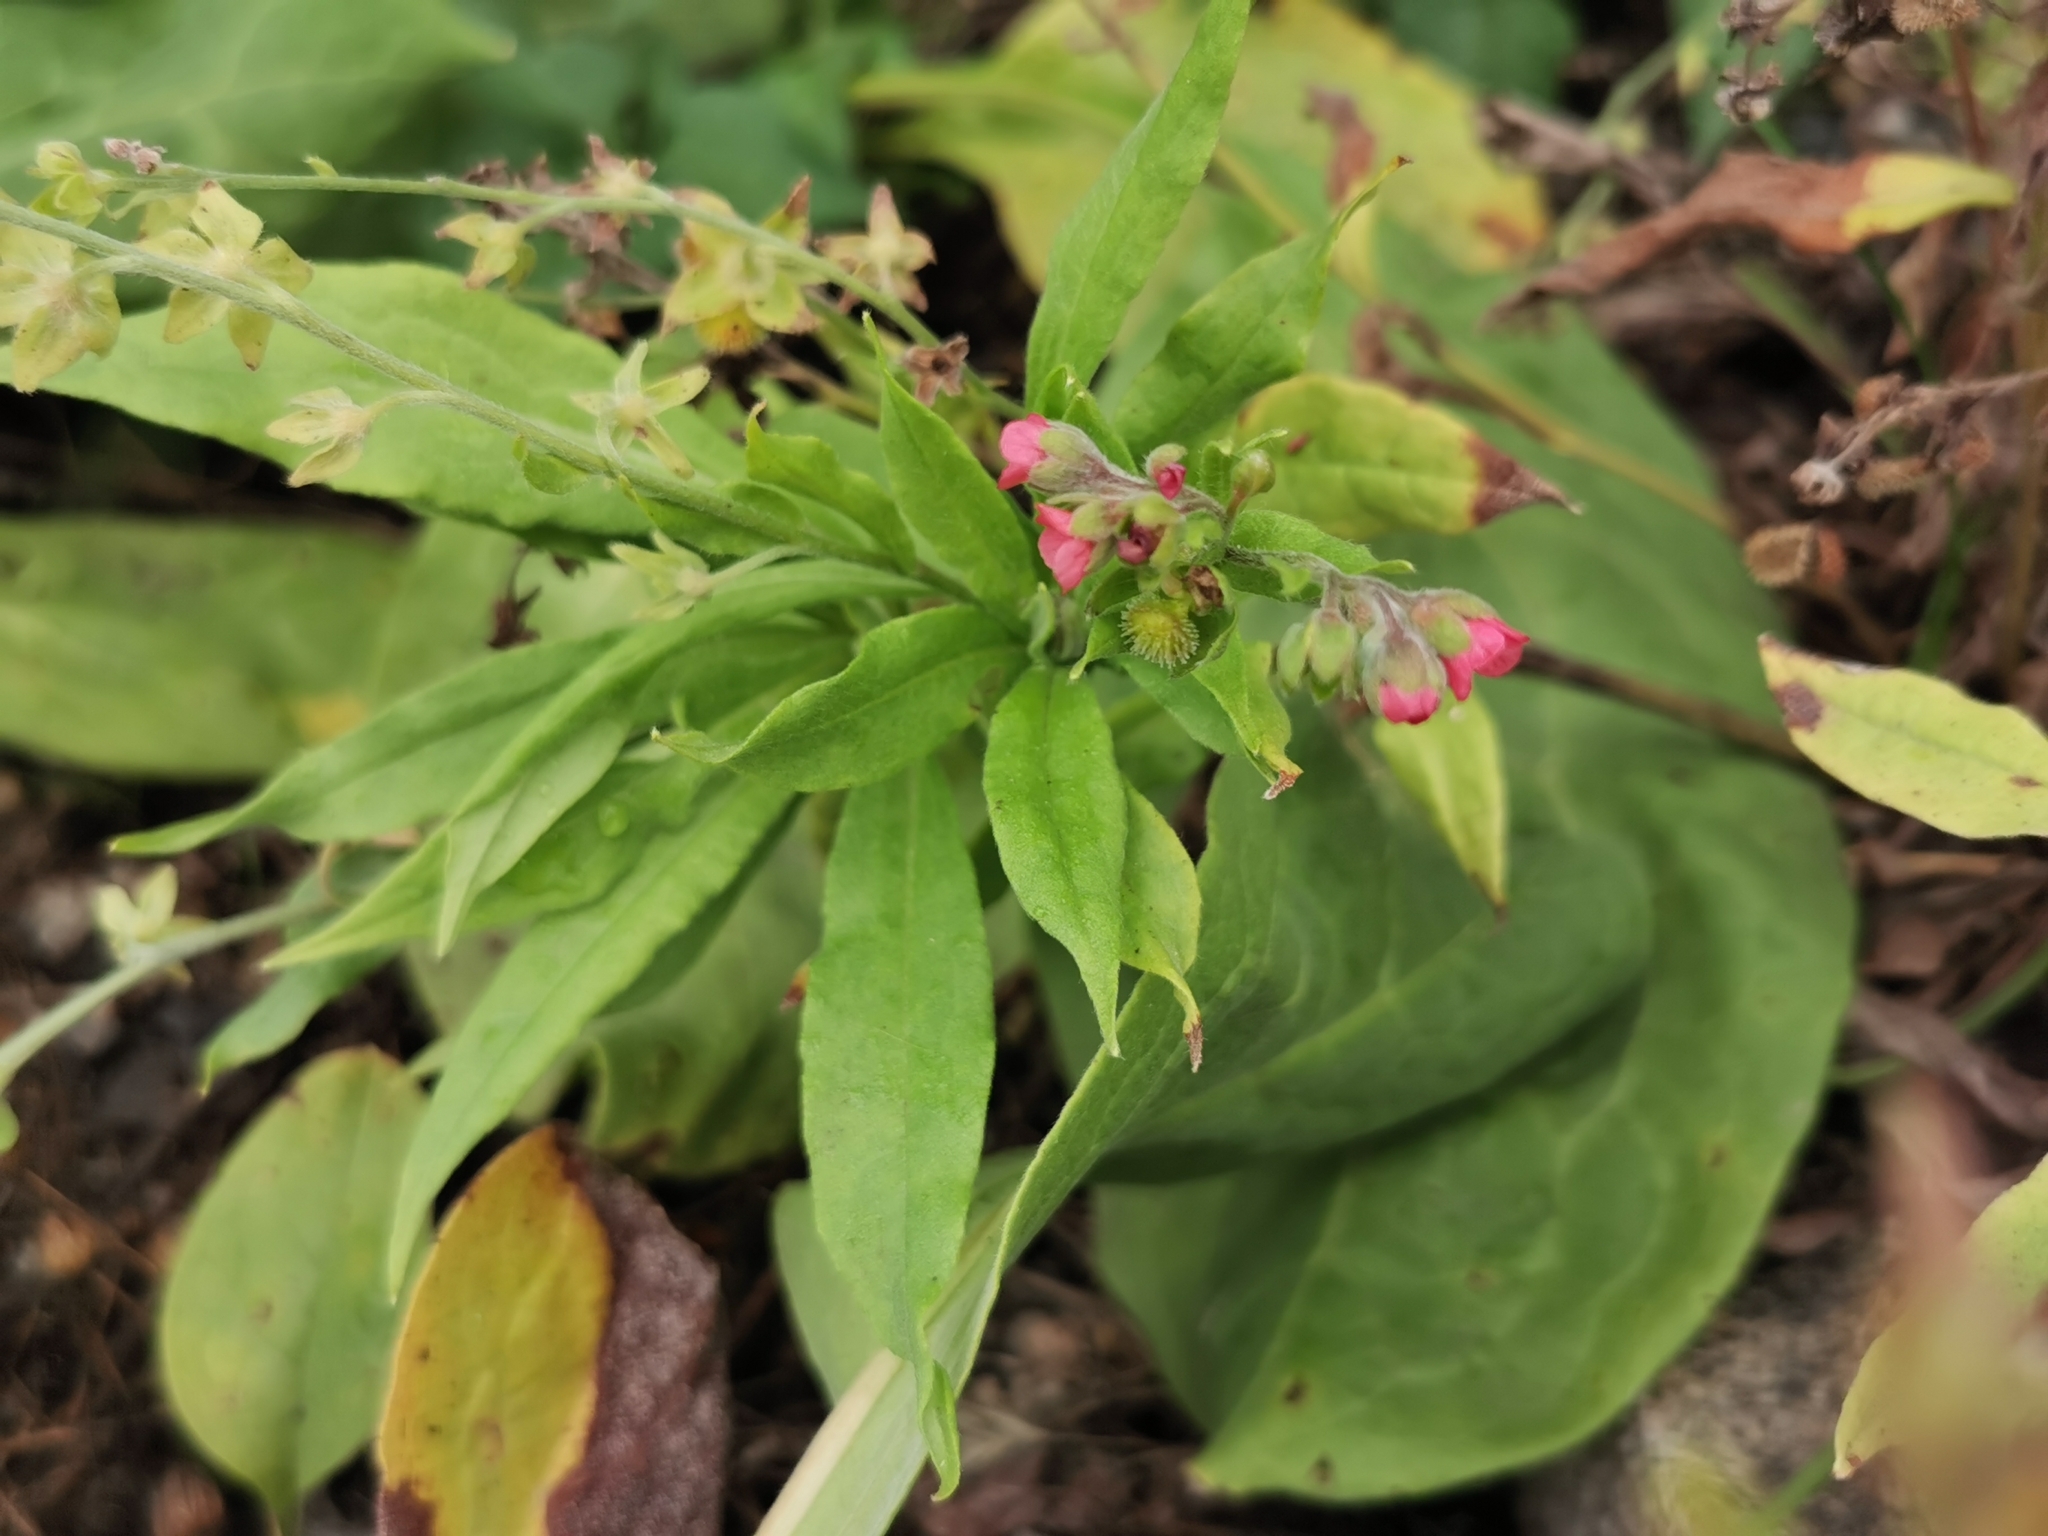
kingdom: Plantae
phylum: Tracheophyta
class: Magnoliopsida
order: Boraginales
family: Boraginaceae
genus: Cynoglossum
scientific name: Cynoglossum officinale
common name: Hound's-tongue
